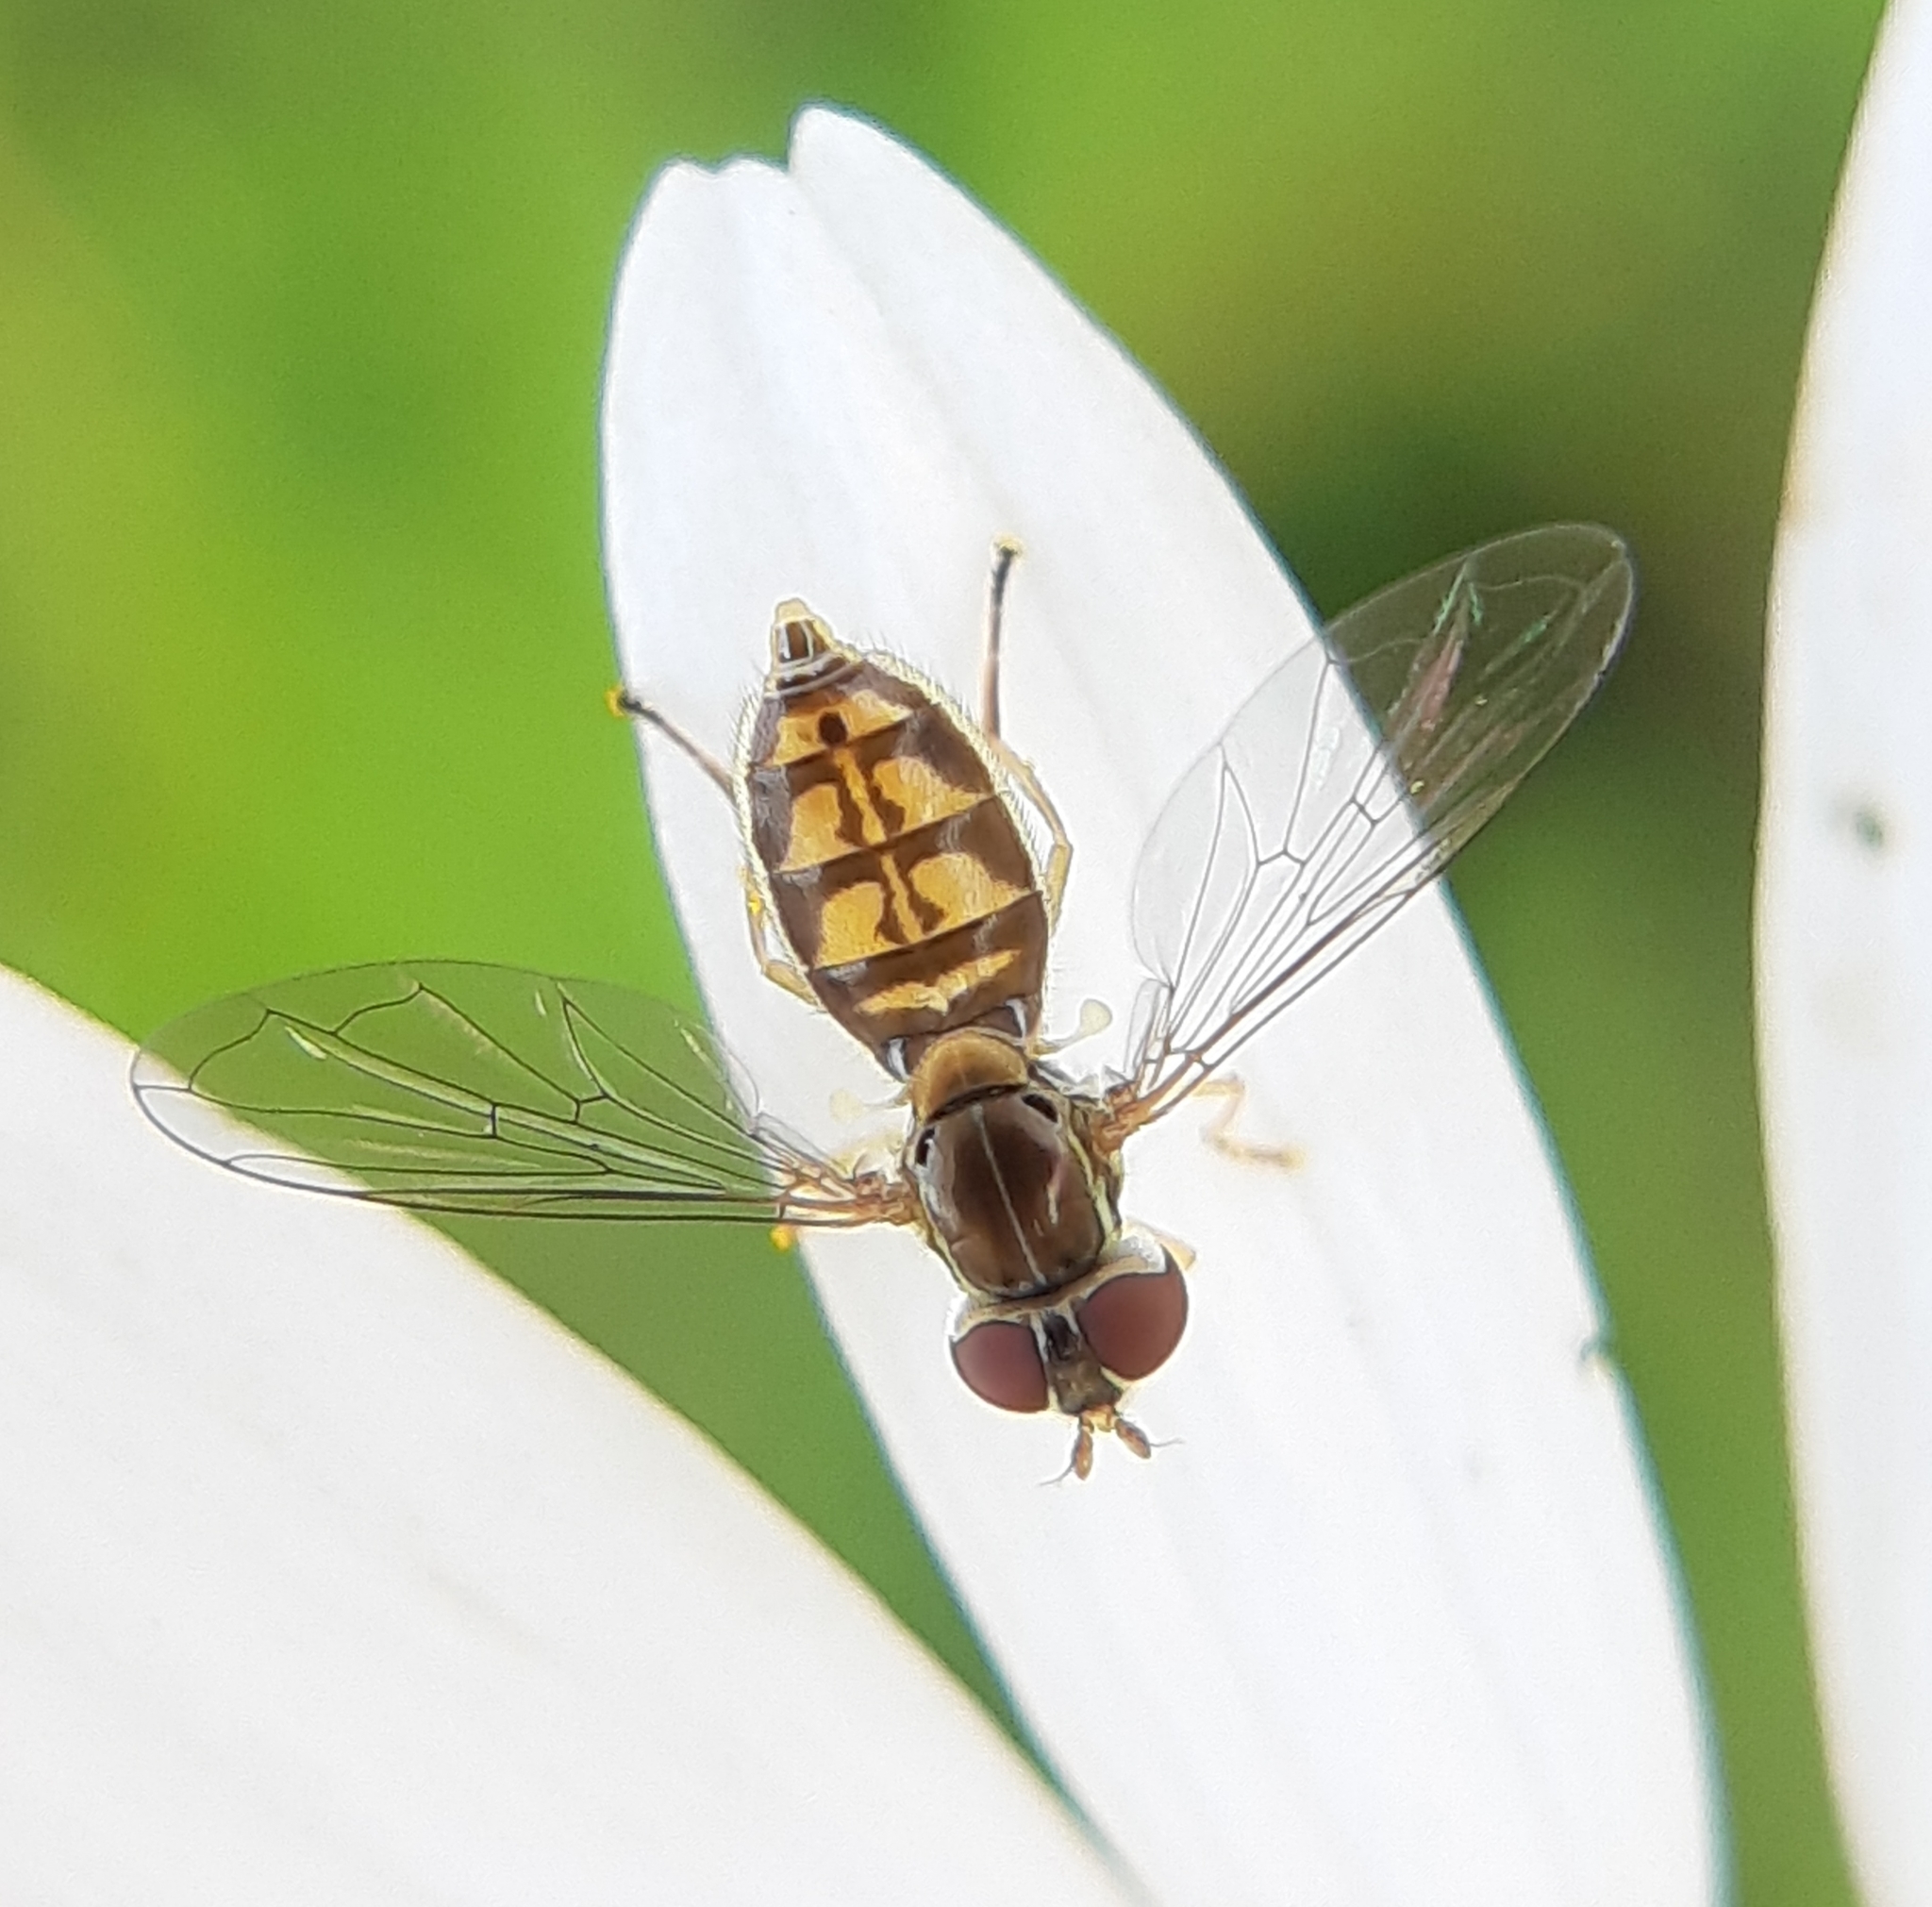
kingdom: Animalia
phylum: Arthropoda
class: Insecta
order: Diptera
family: Syrphidae
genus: Toxomerus
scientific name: Toxomerus marginatus
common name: Syrphid fly
